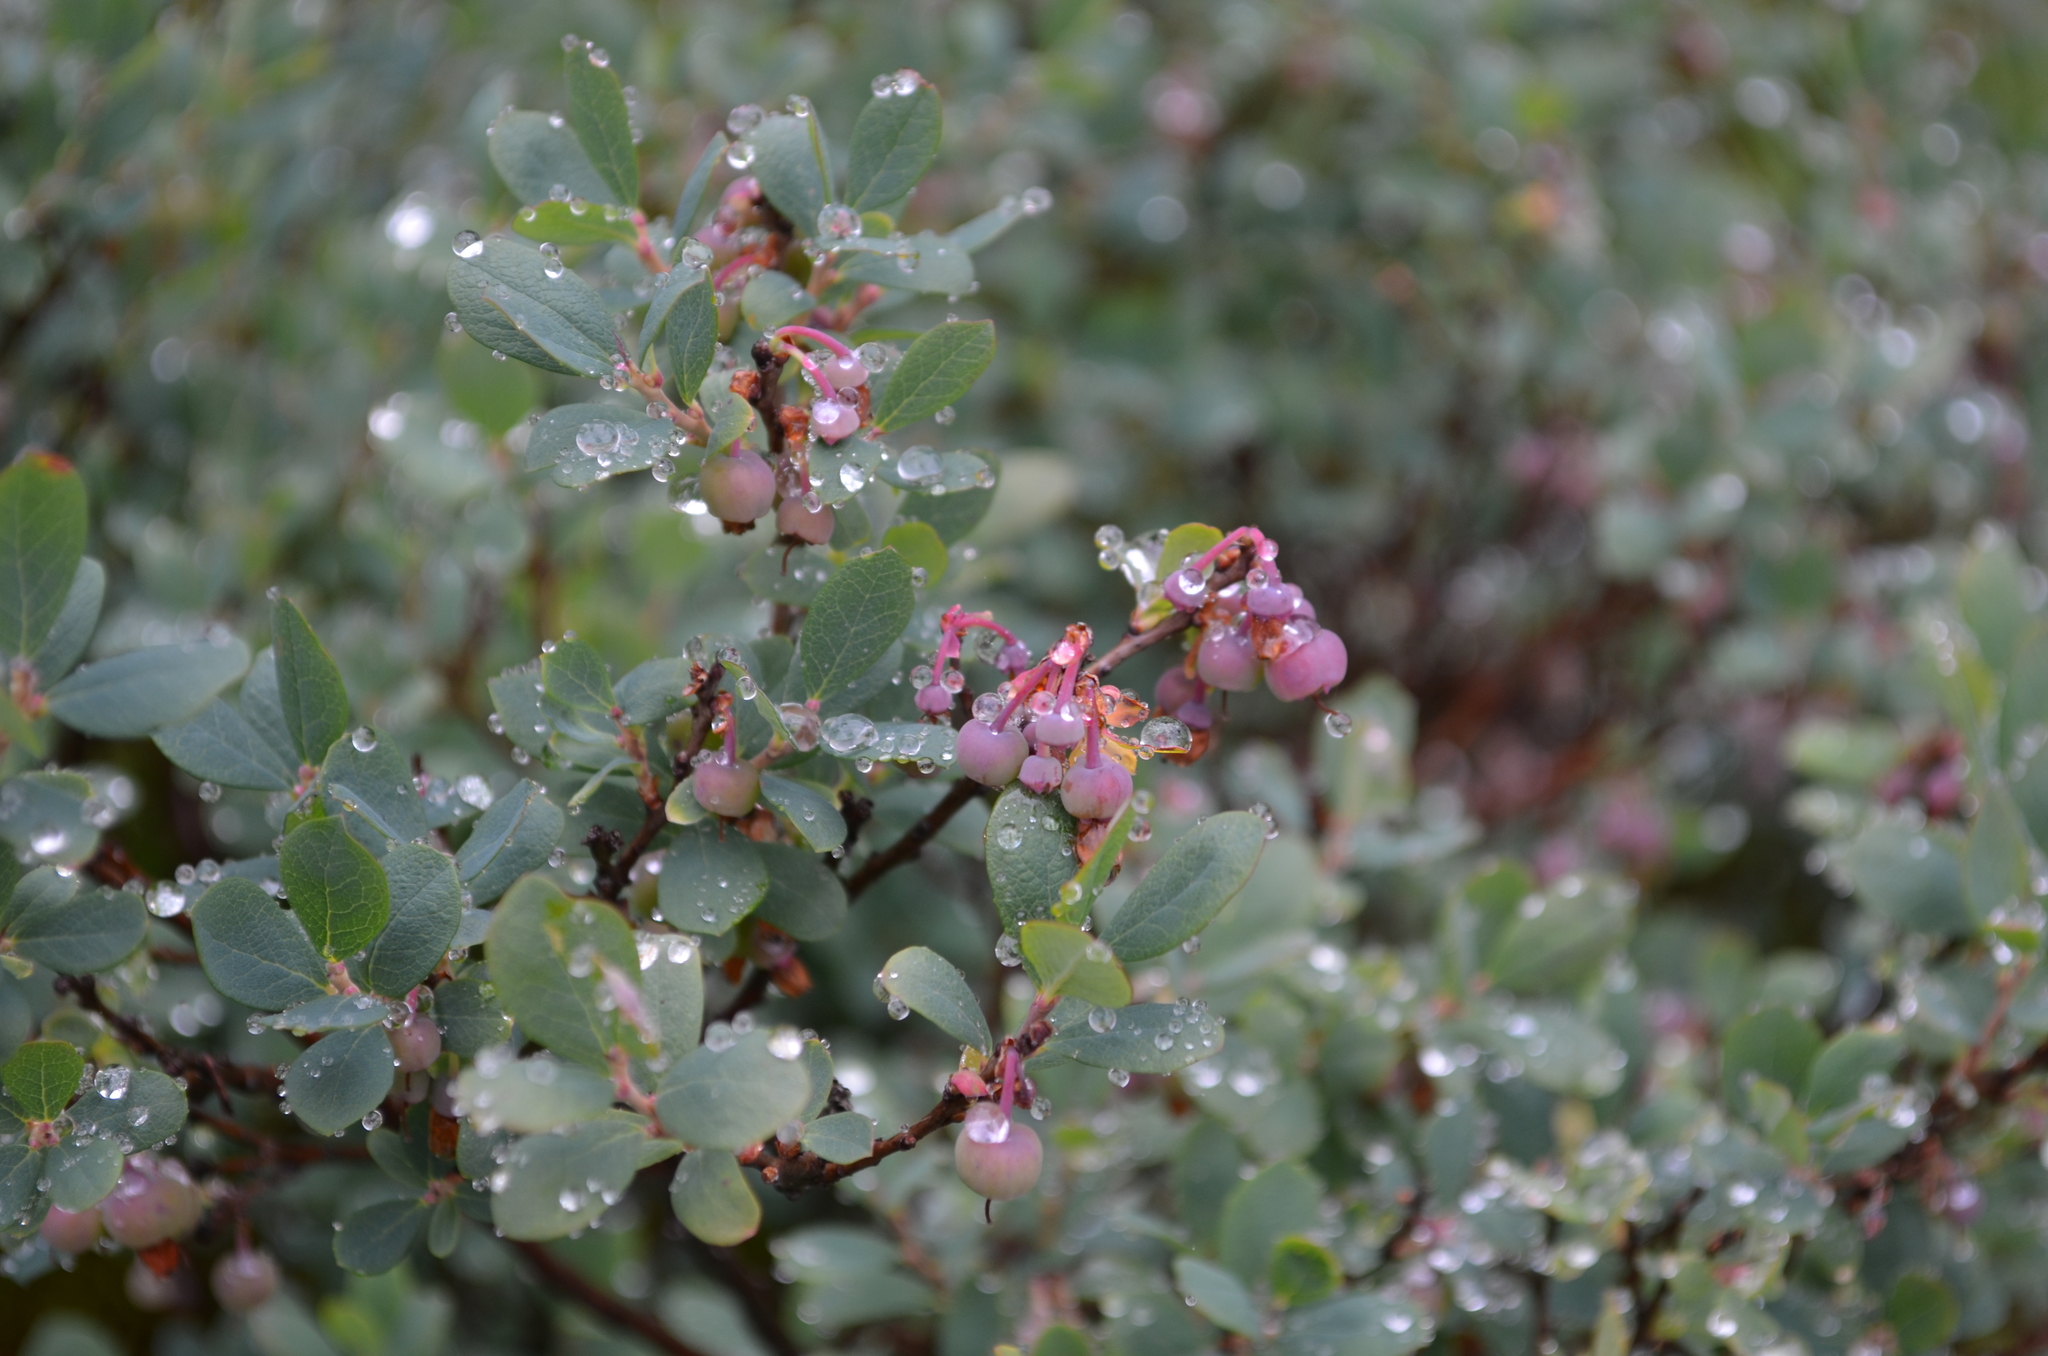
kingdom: Plantae
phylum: Tracheophyta
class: Magnoliopsida
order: Ericales
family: Ericaceae
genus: Vaccinium
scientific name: Vaccinium uliginosum
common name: Bog bilberry
